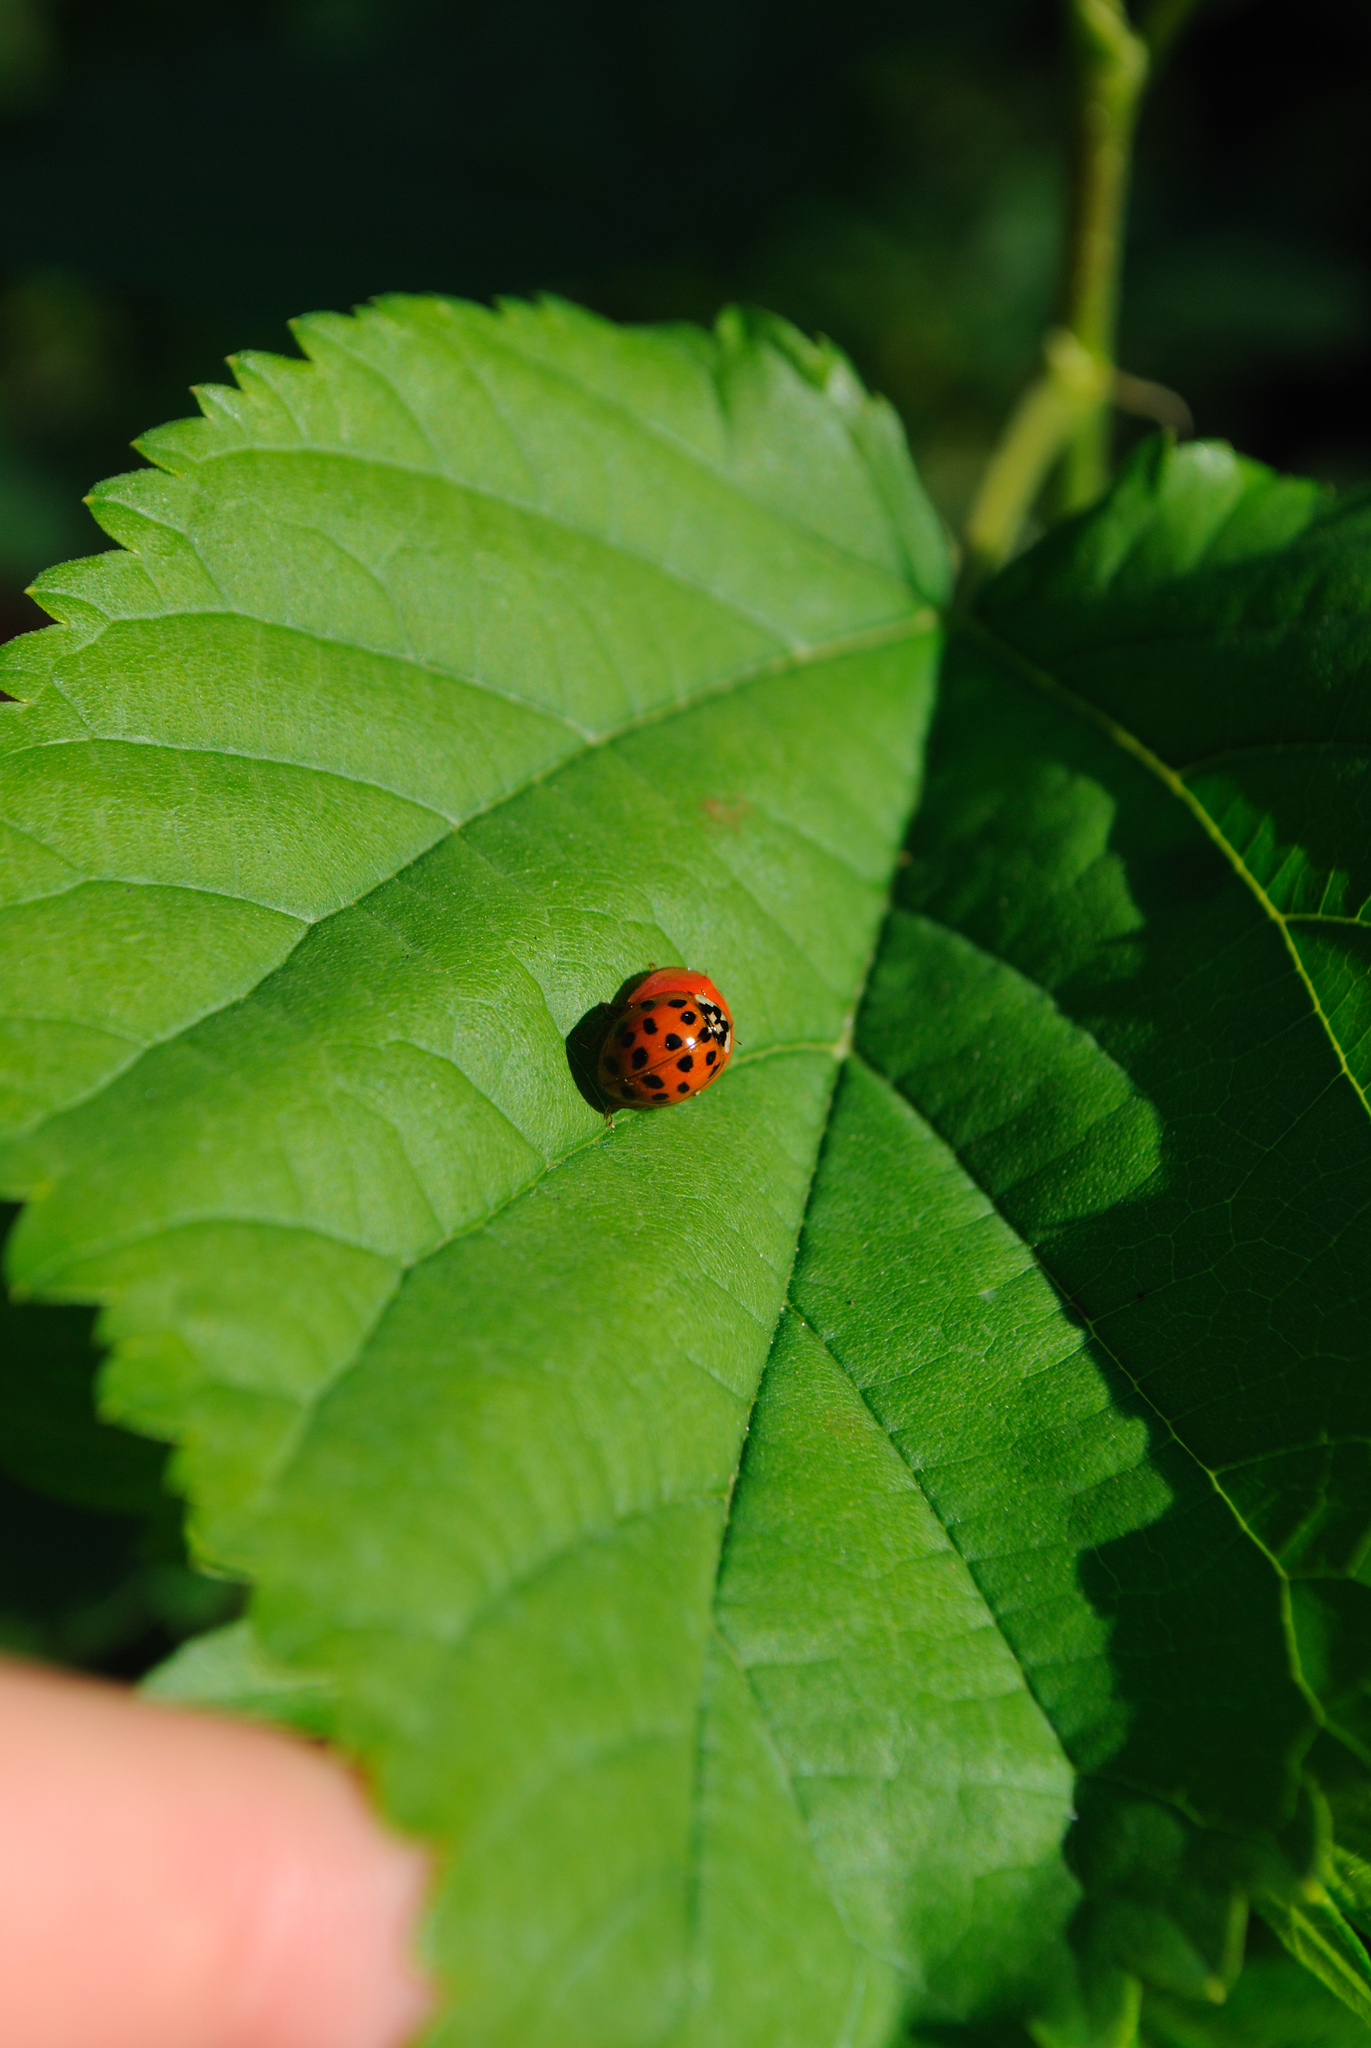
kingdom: Animalia
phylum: Arthropoda
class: Insecta
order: Coleoptera
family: Coccinellidae
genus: Harmonia
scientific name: Harmonia axyridis
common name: Harlequin ladybird
